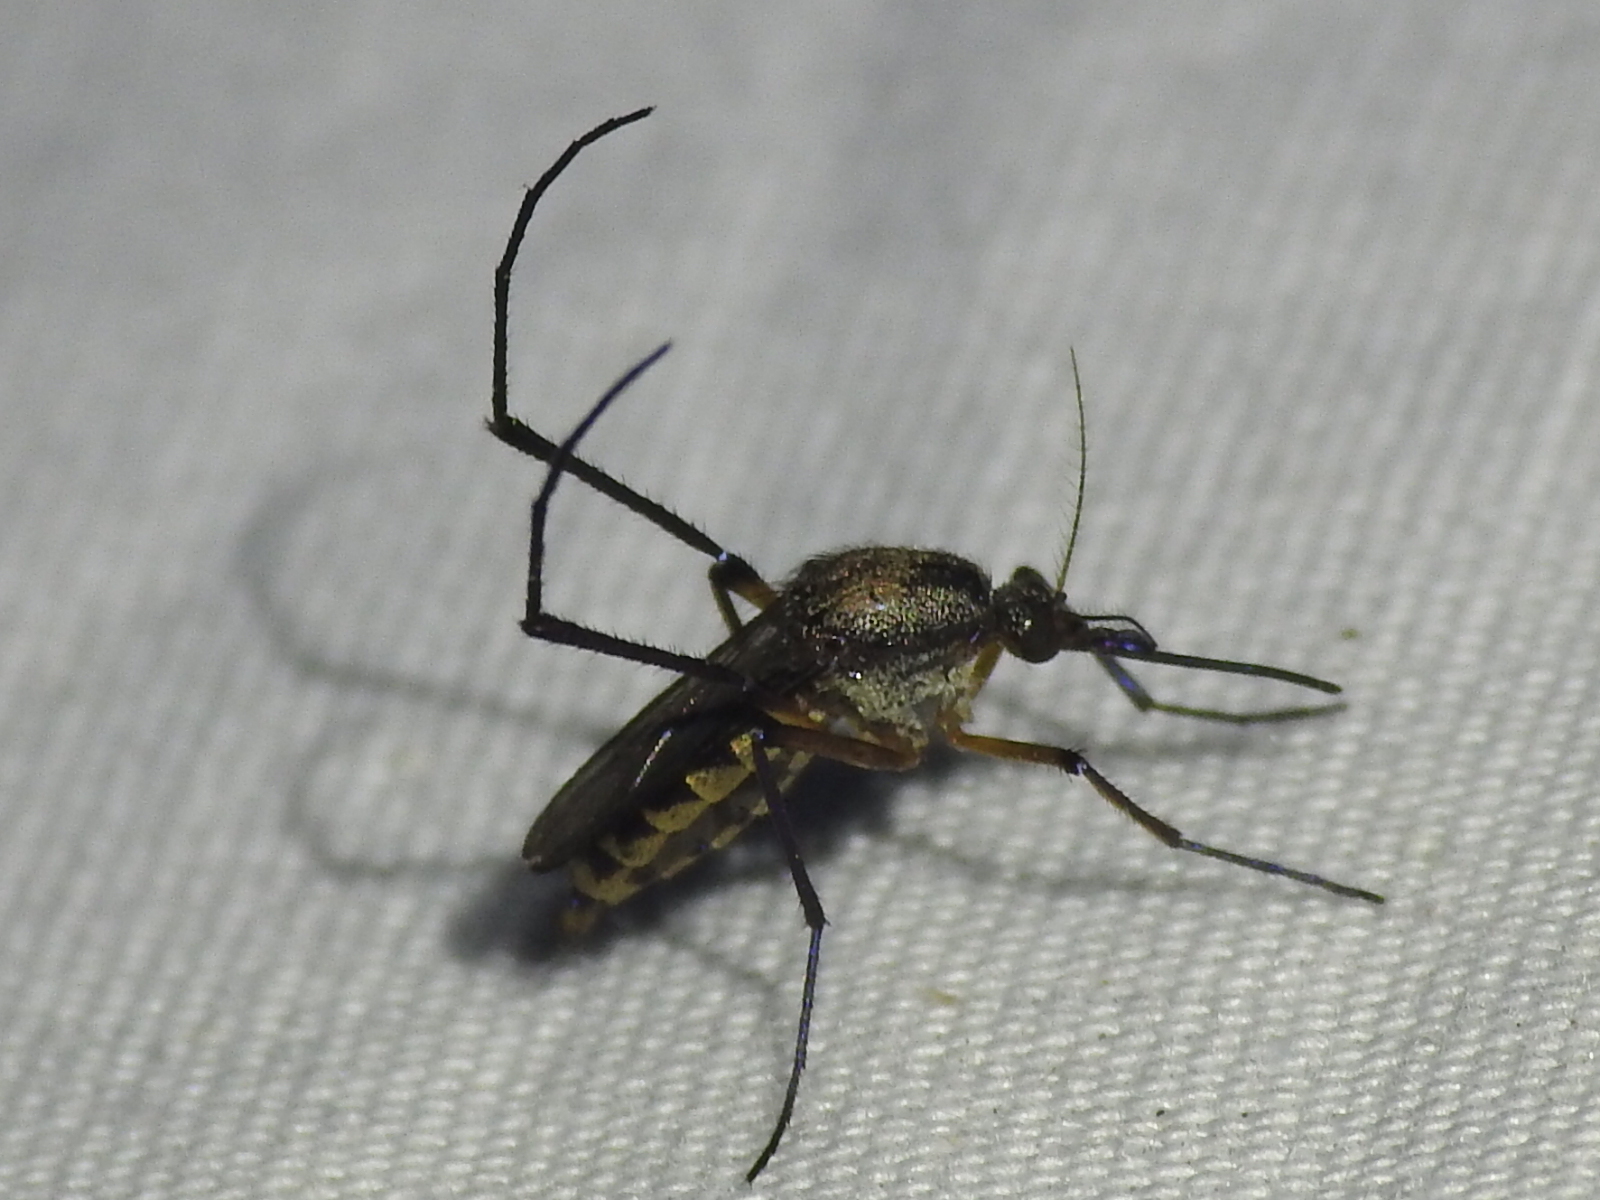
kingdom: Animalia
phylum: Arthropoda
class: Insecta
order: Diptera
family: Culicidae
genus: Psorophora
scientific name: Psorophora cyanescens
